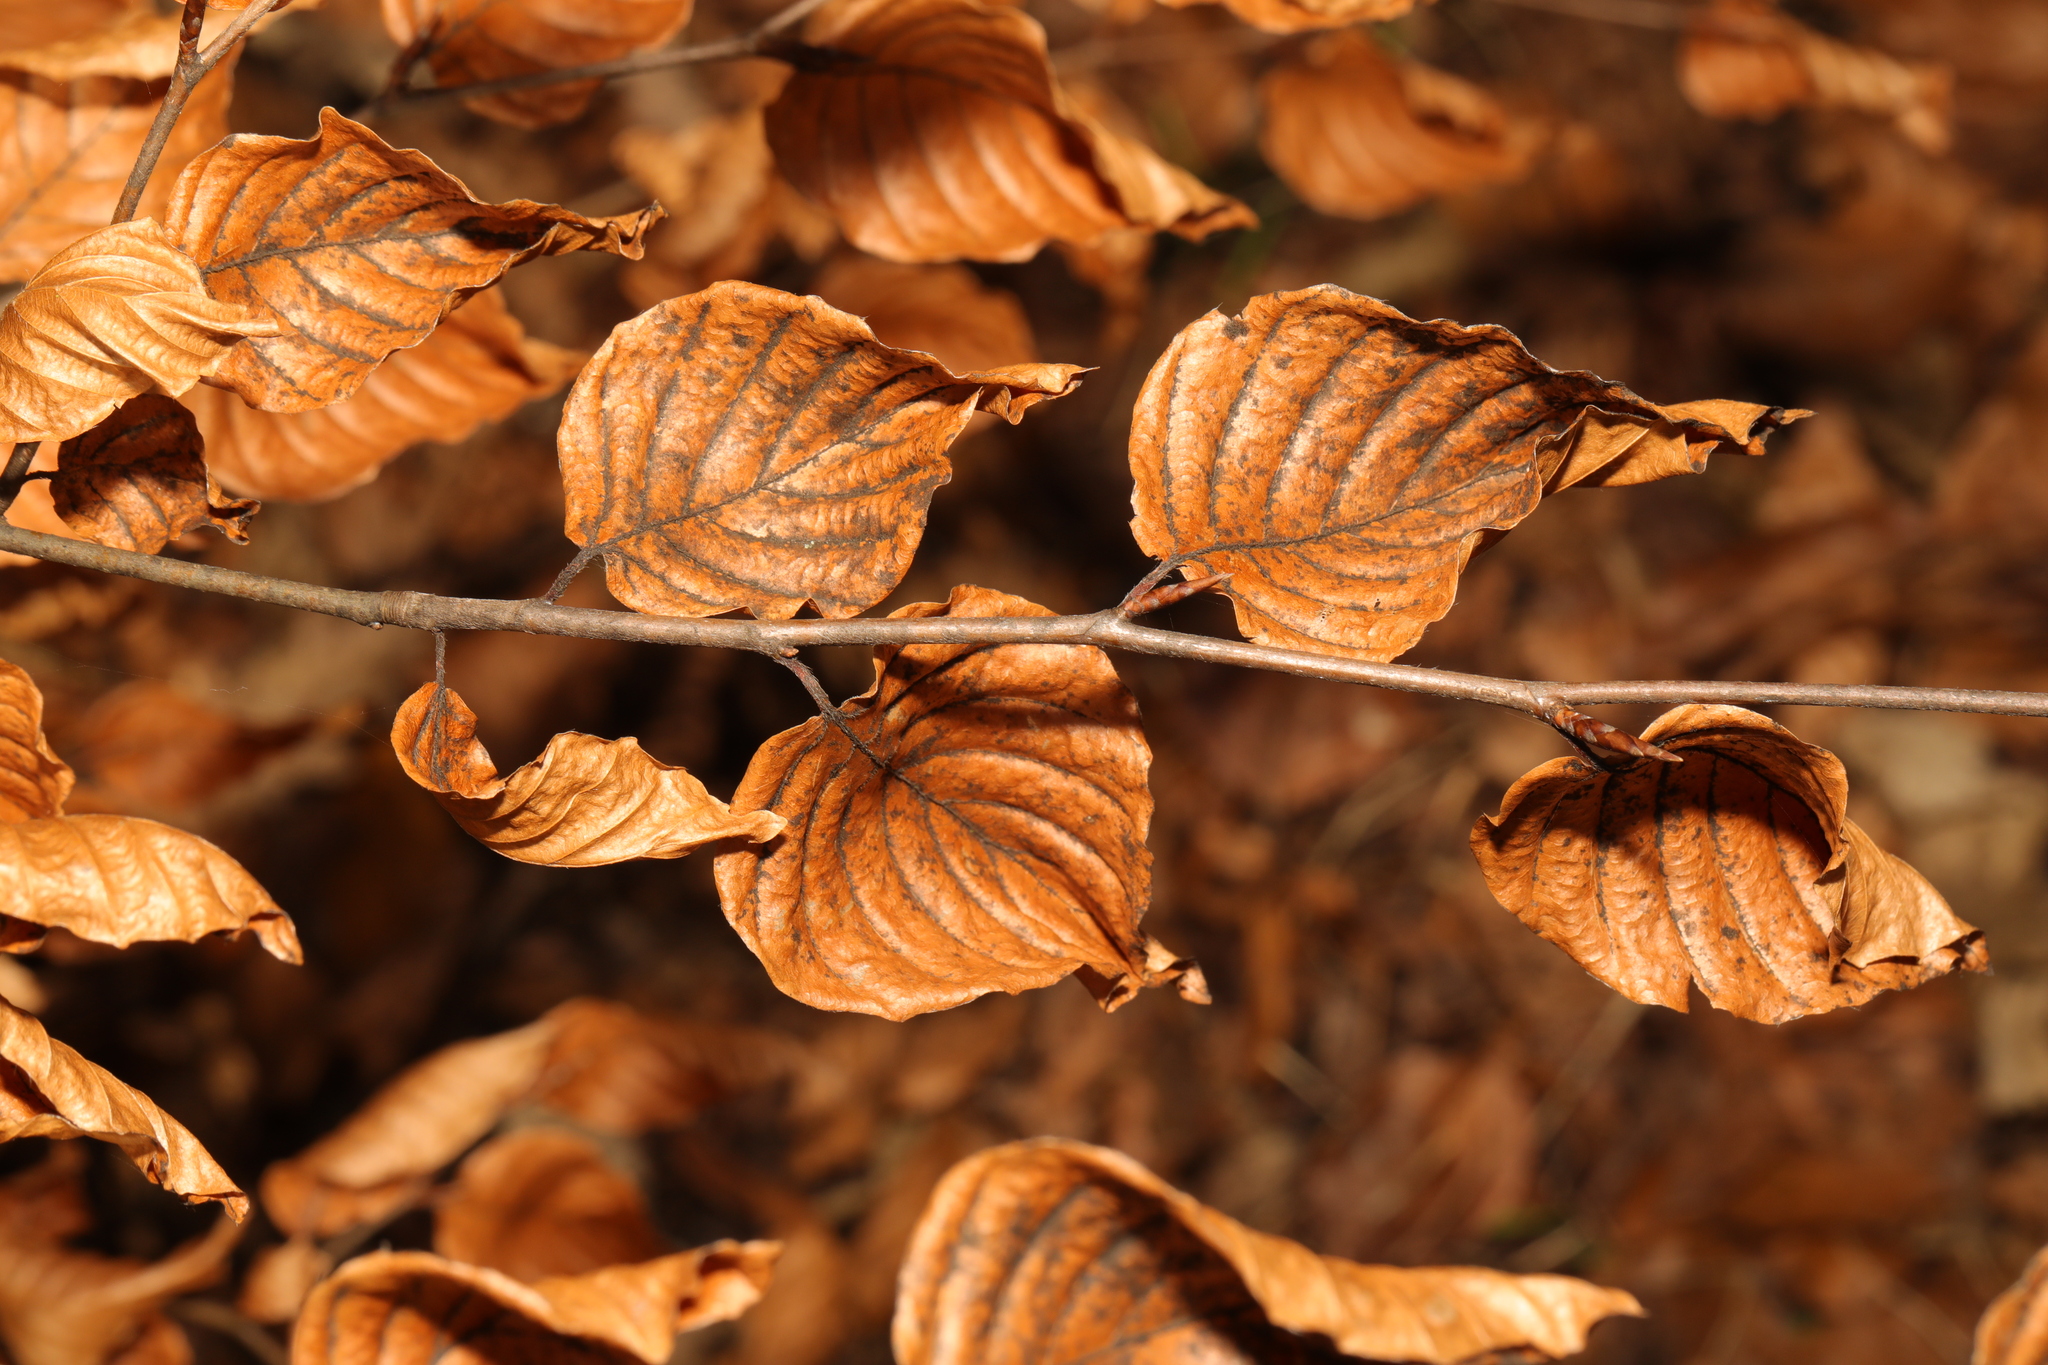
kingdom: Plantae
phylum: Tracheophyta
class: Magnoliopsida
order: Fagales
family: Fagaceae
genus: Fagus
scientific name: Fagus sylvatica
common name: Beech
